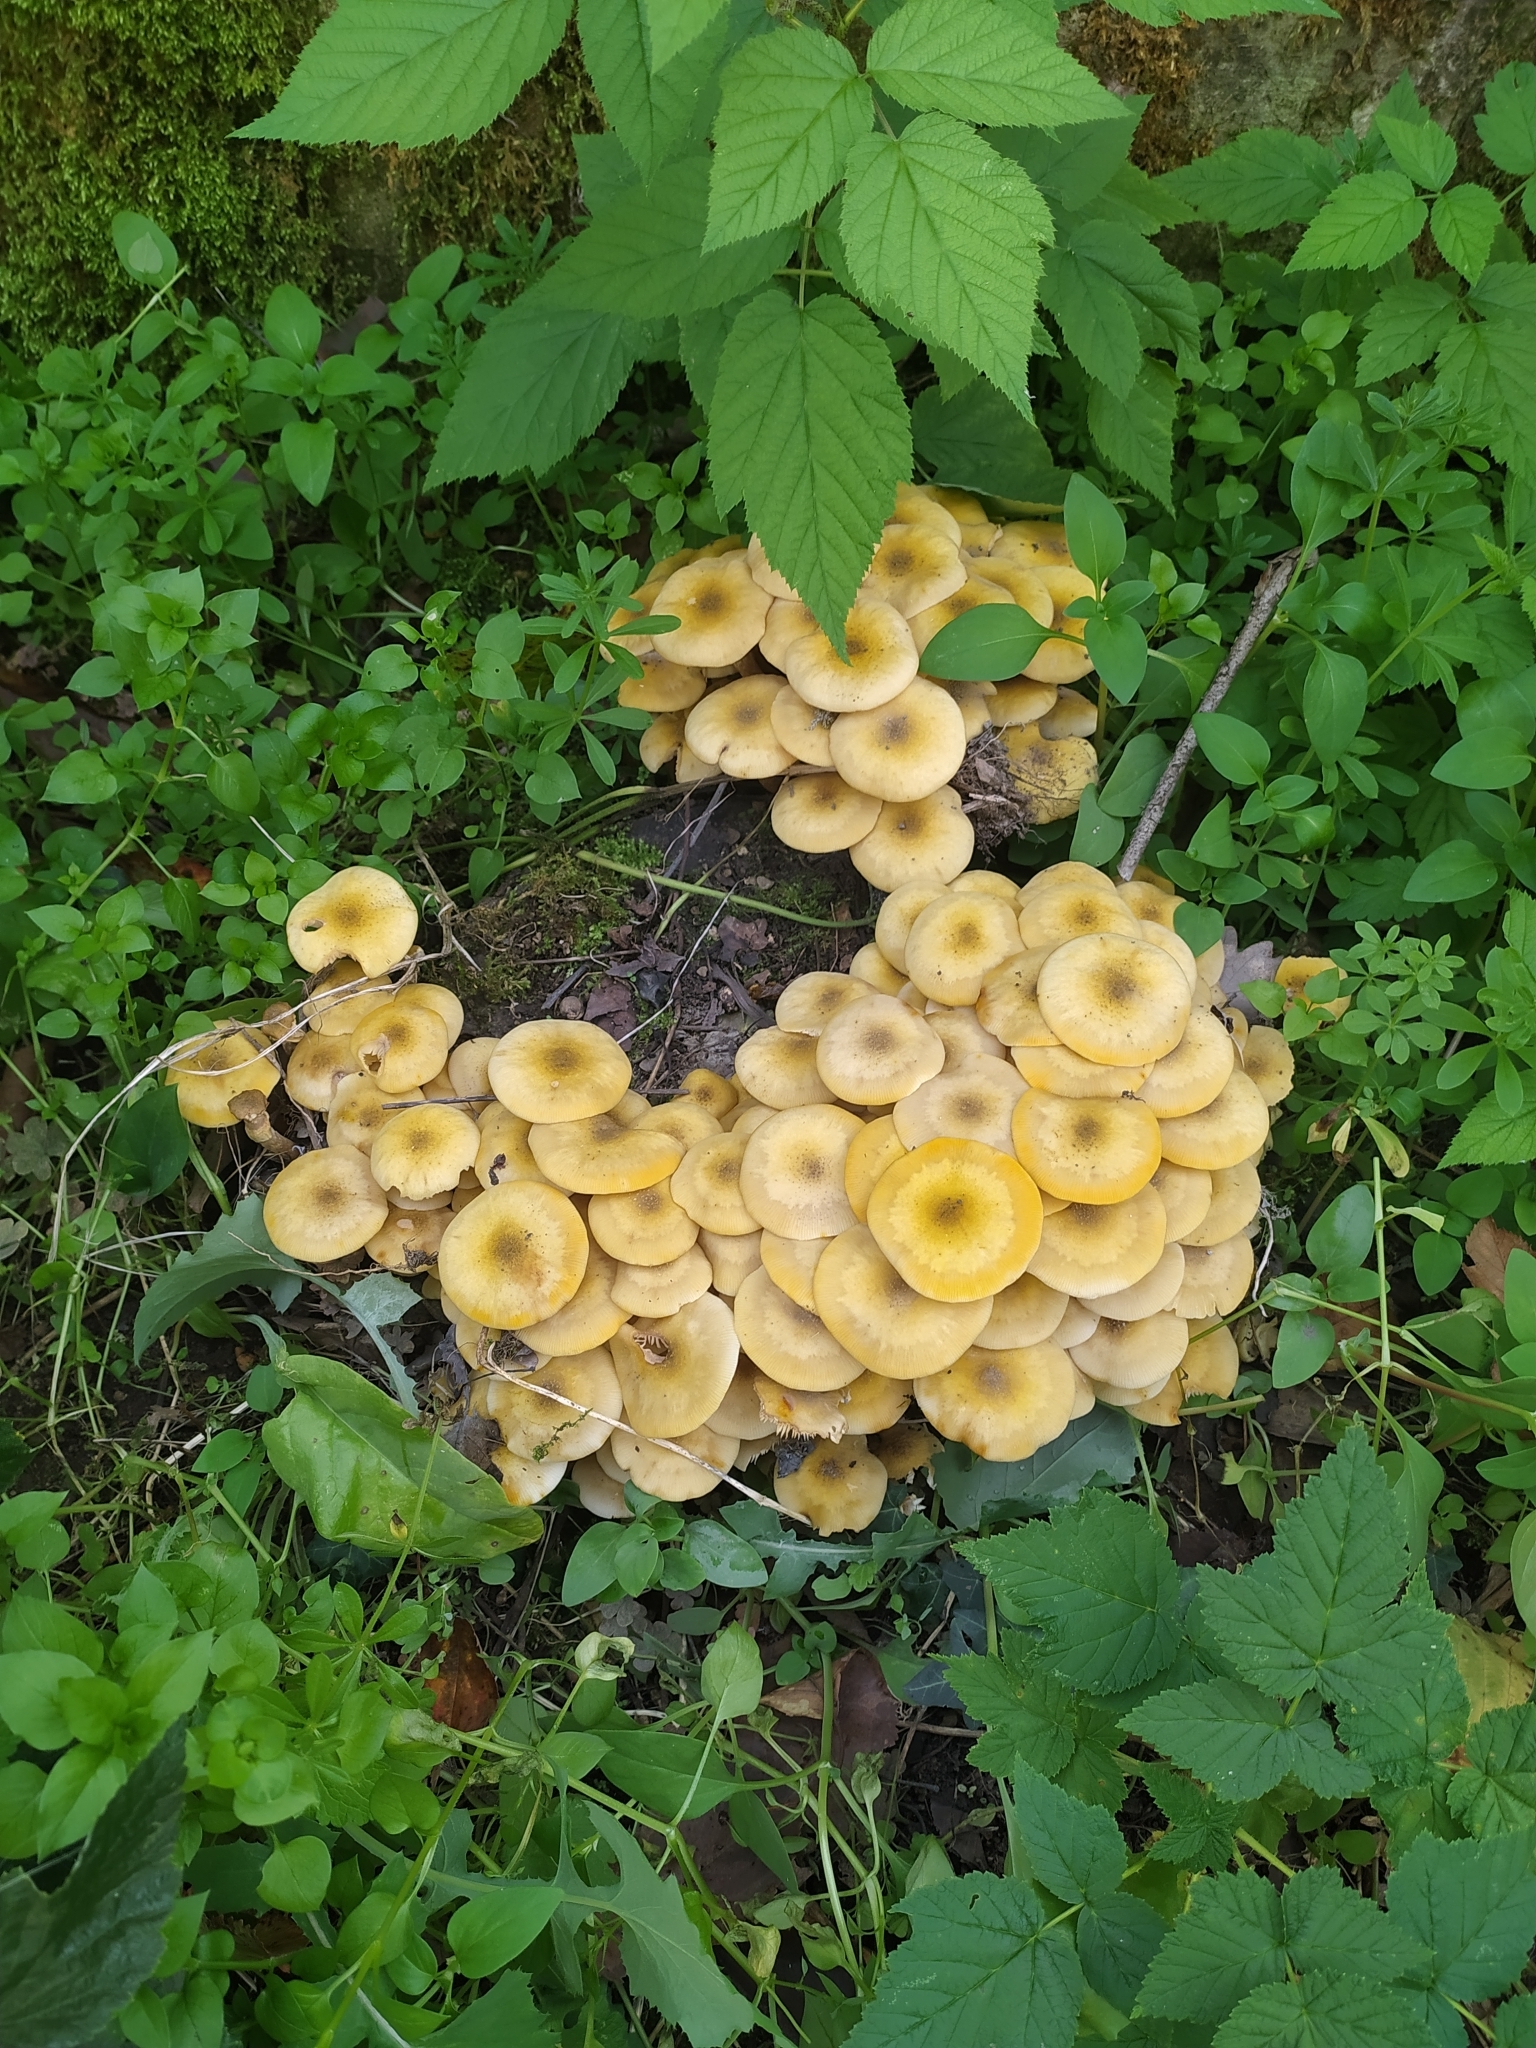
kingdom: Fungi
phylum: Basidiomycota
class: Agaricomycetes
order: Agaricales
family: Physalacriaceae
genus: Armillaria
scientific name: Armillaria mellea
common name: Honey fungus
